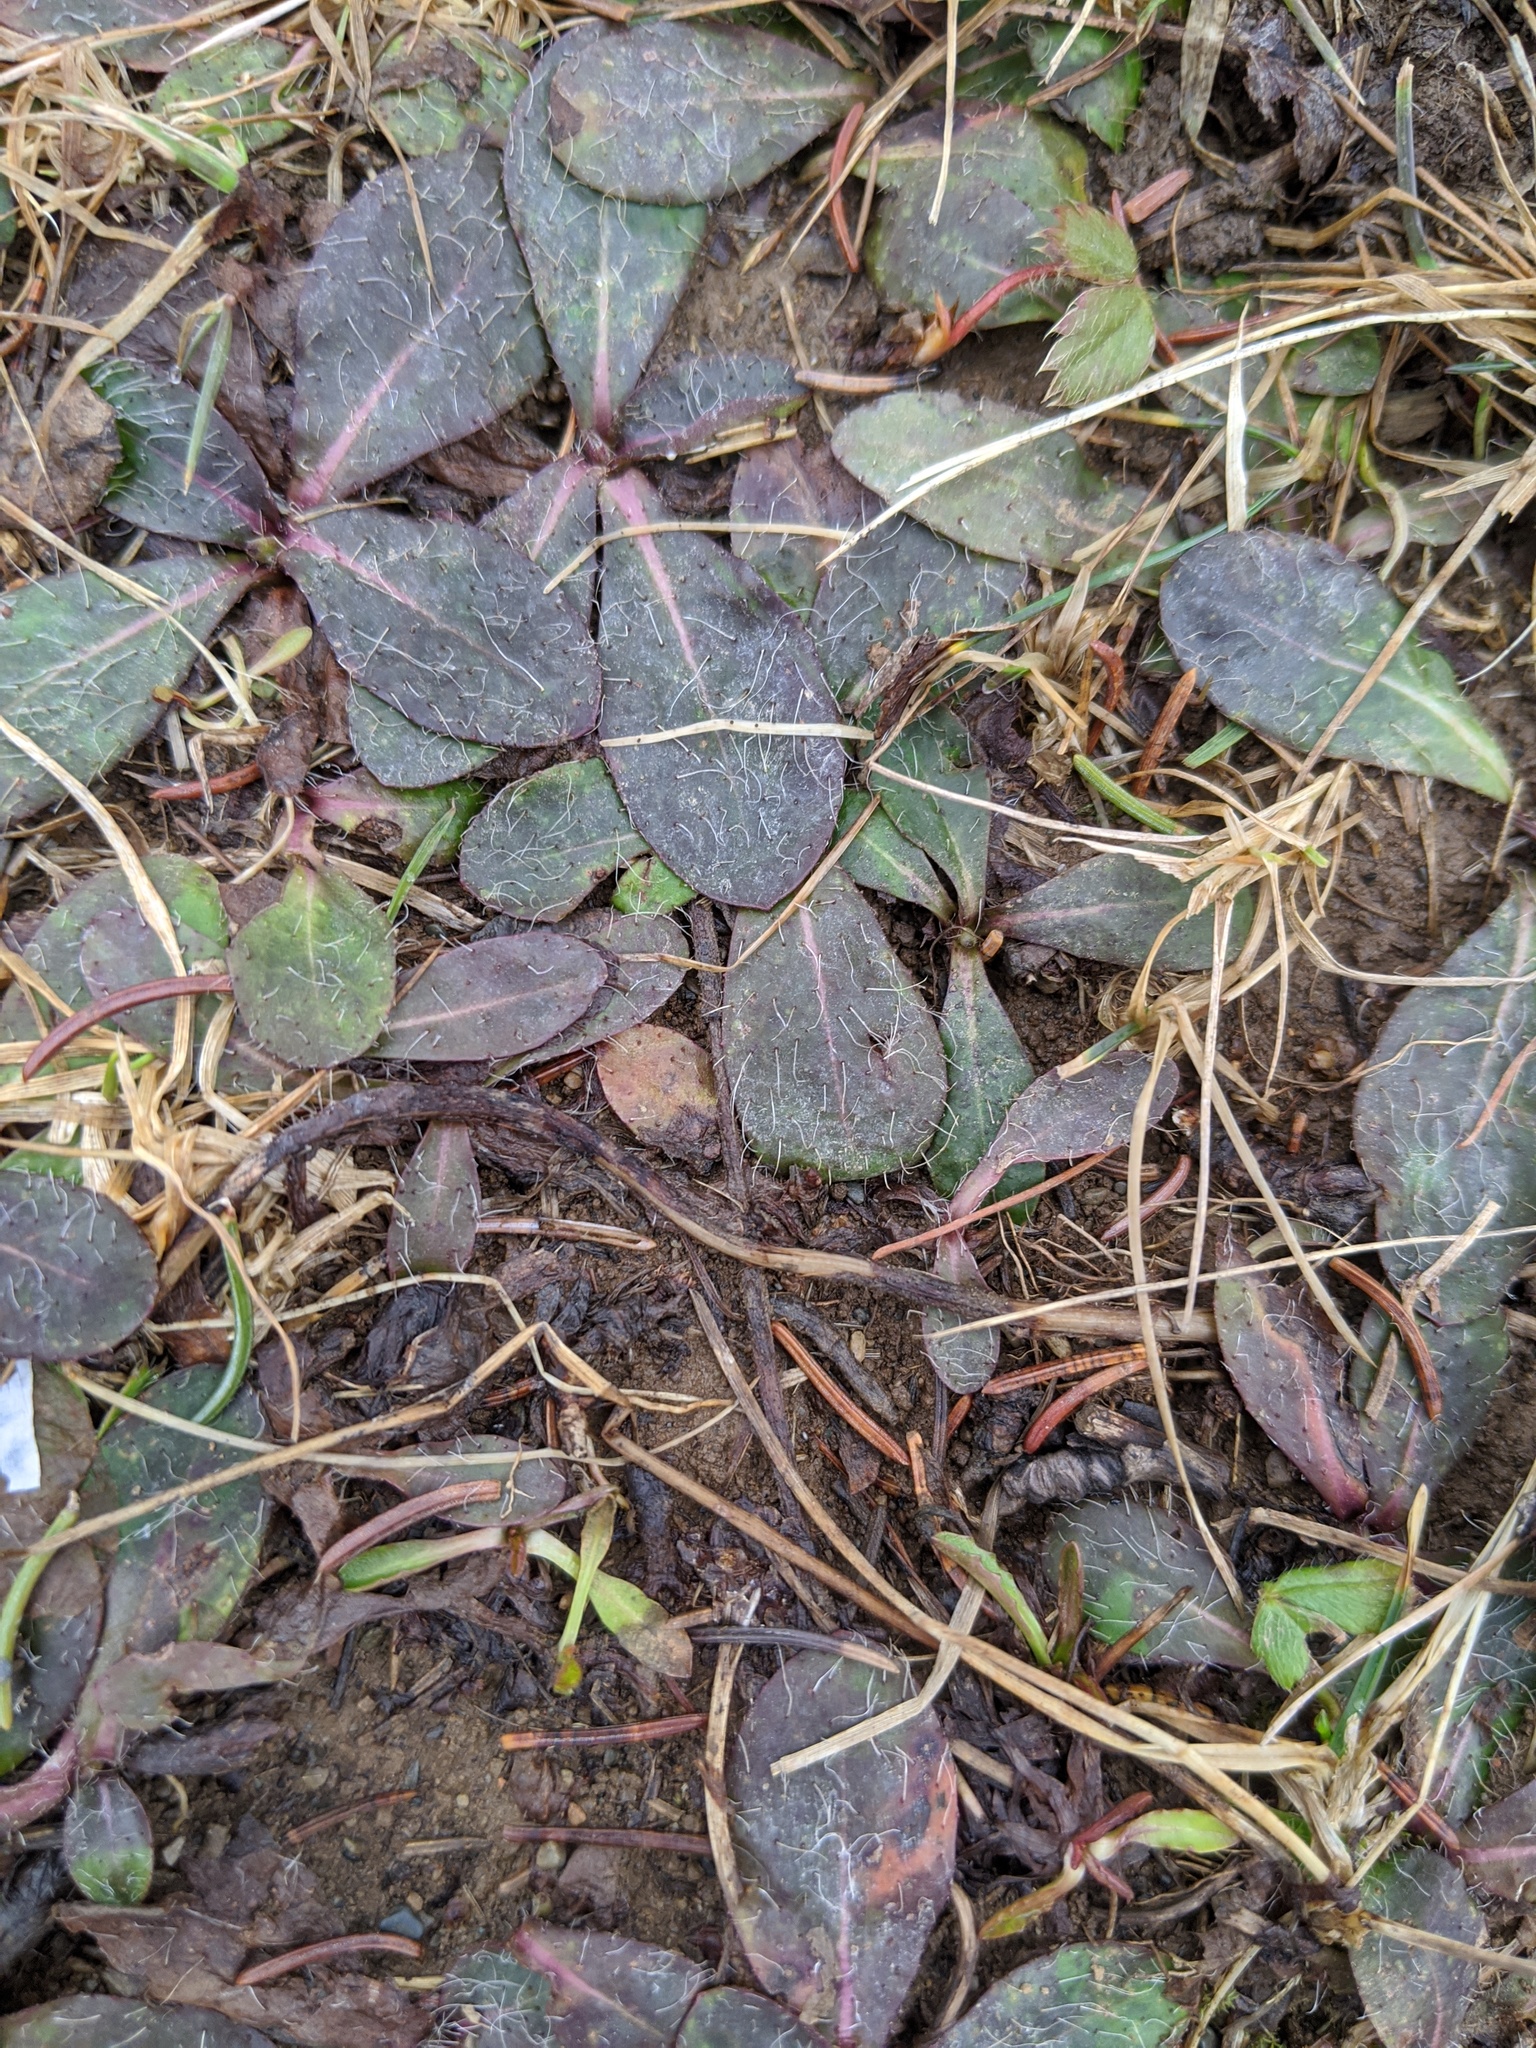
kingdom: Plantae
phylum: Tracheophyta
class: Magnoliopsida
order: Asterales
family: Asteraceae
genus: Pilosella
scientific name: Pilosella officinarum
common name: Mouse-ear hawkweed
